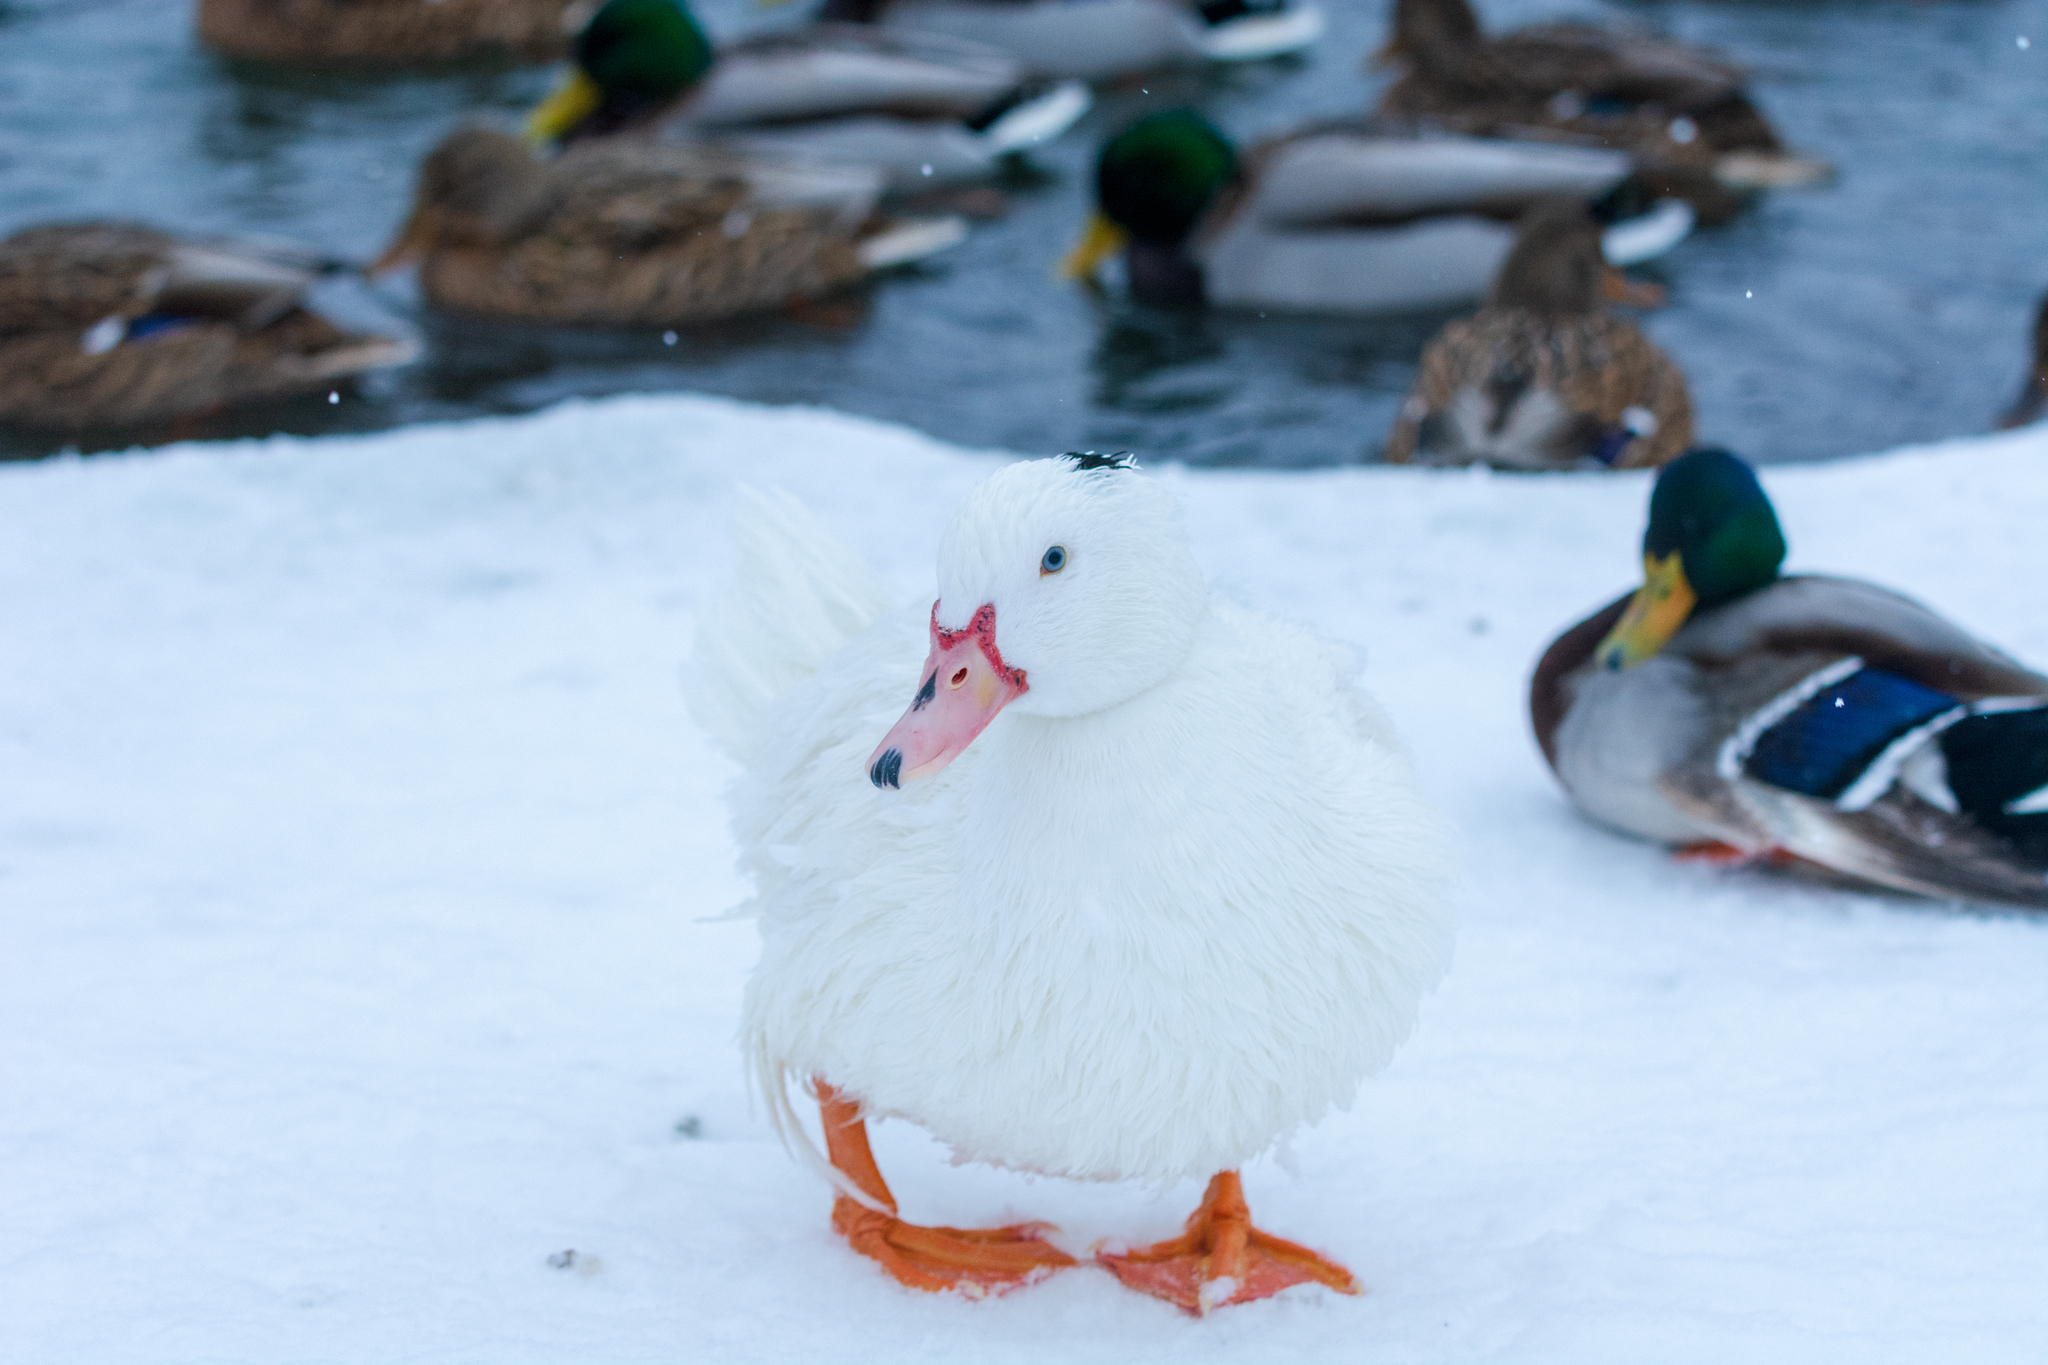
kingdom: Animalia
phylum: Chordata
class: Aves
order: Anseriformes
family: Anatidae
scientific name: Anatidae
